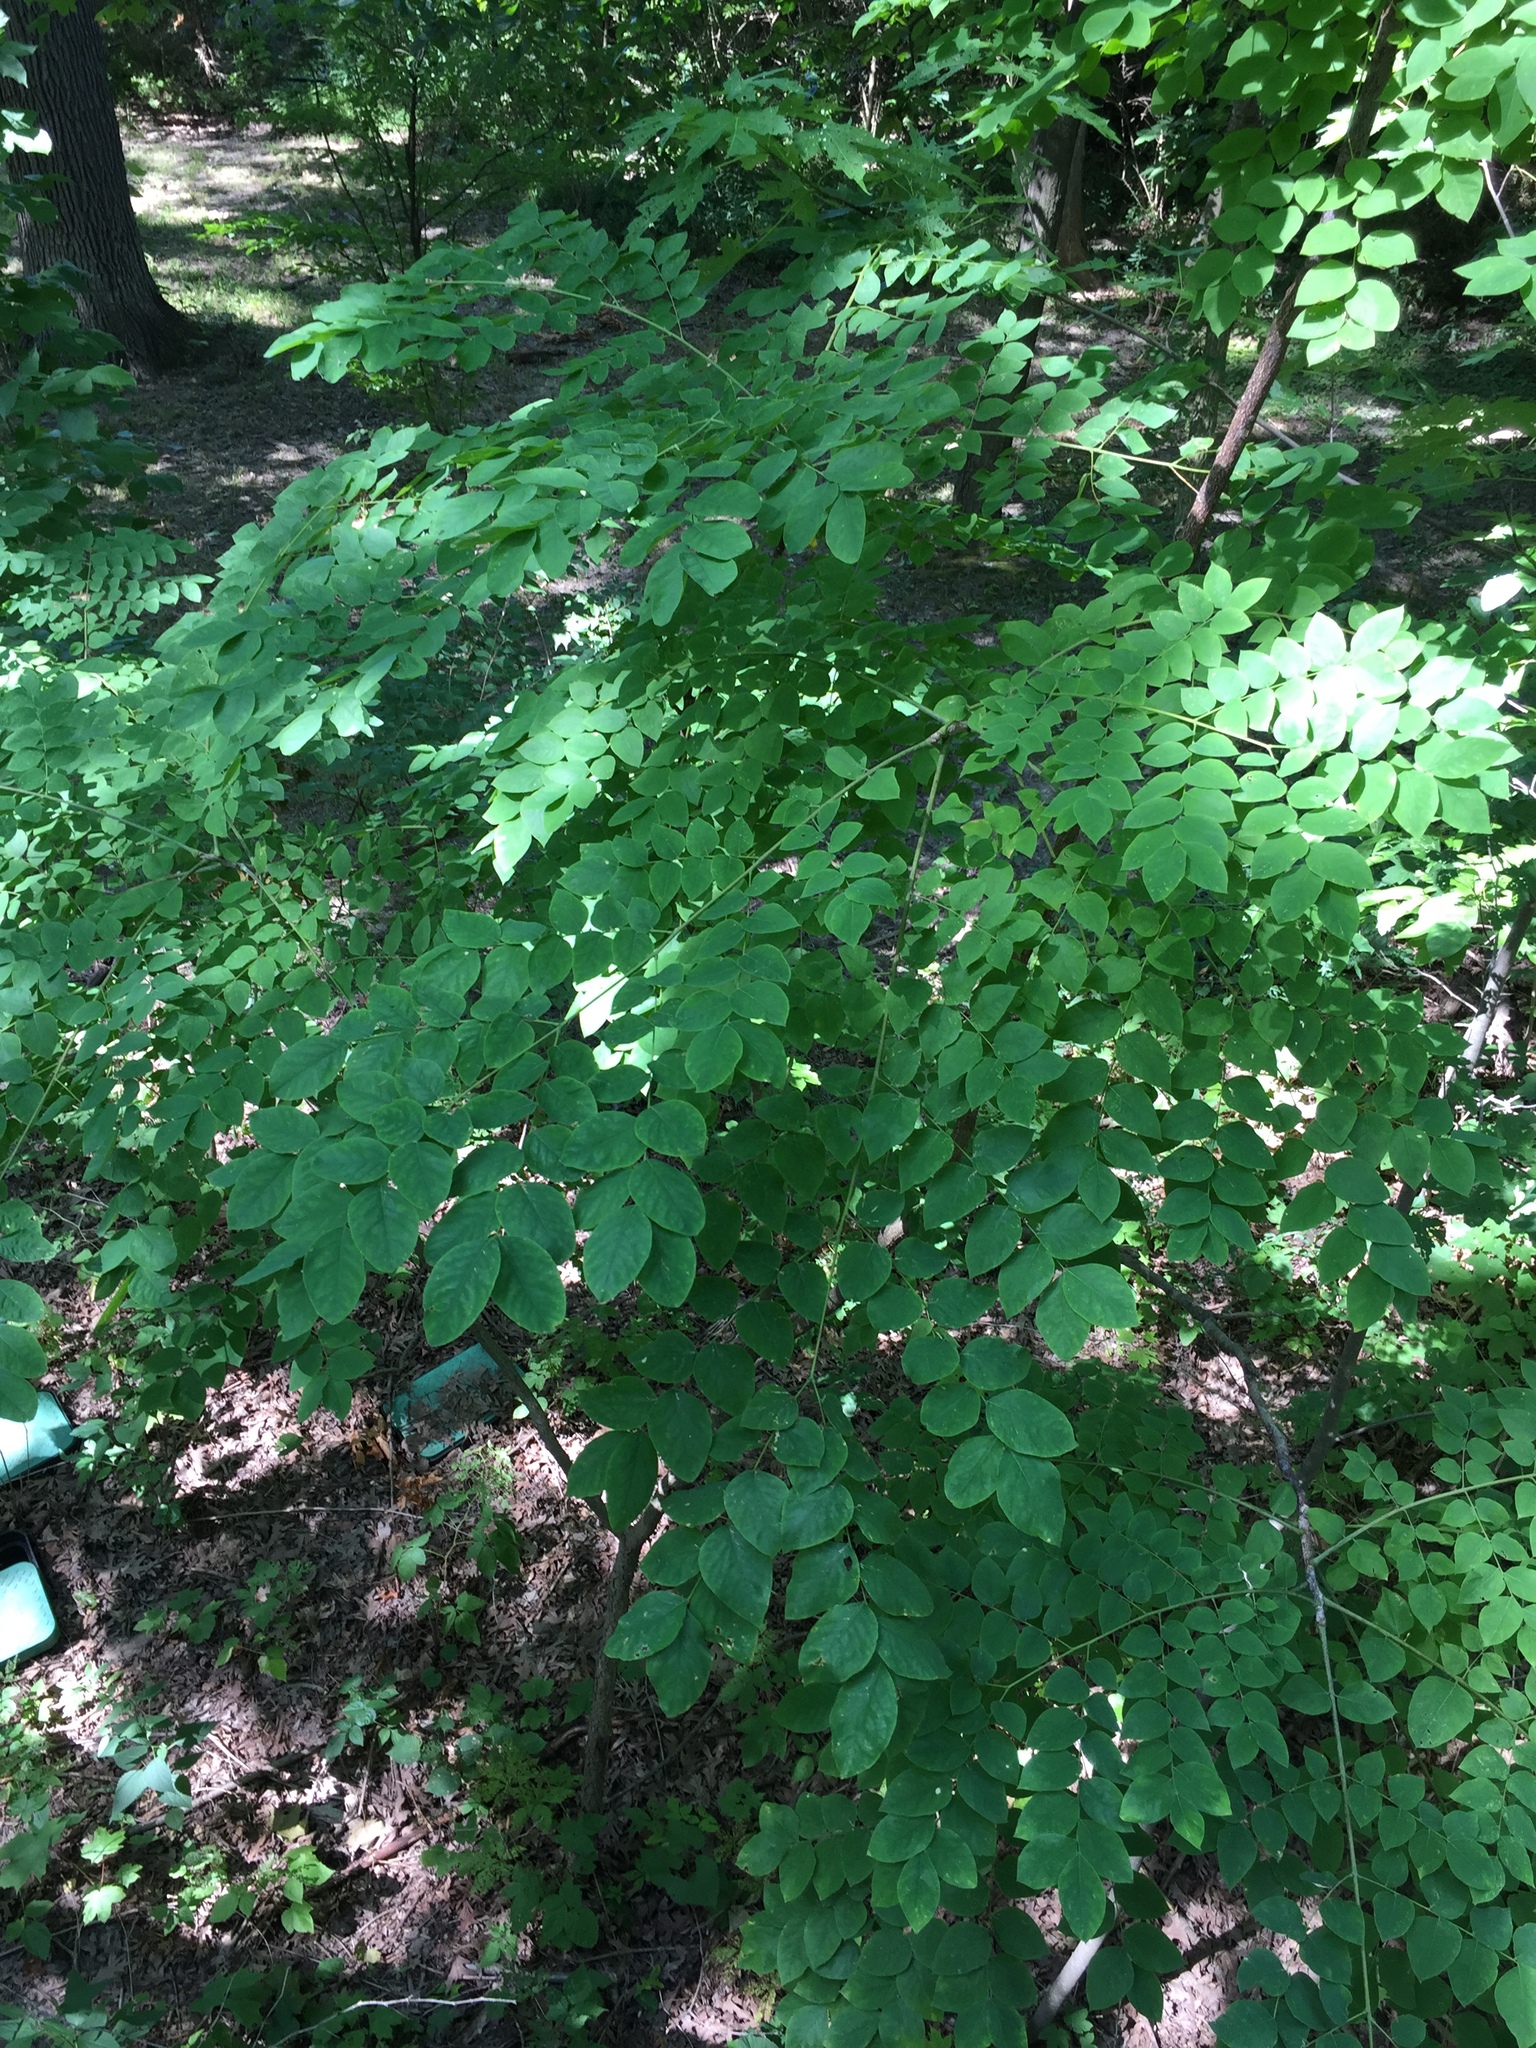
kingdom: Plantae
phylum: Tracheophyta
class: Magnoliopsida
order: Fabales
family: Fabaceae
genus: Gymnocladus
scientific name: Gymnocladus dioicus
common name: Kentucky coffee-tree
